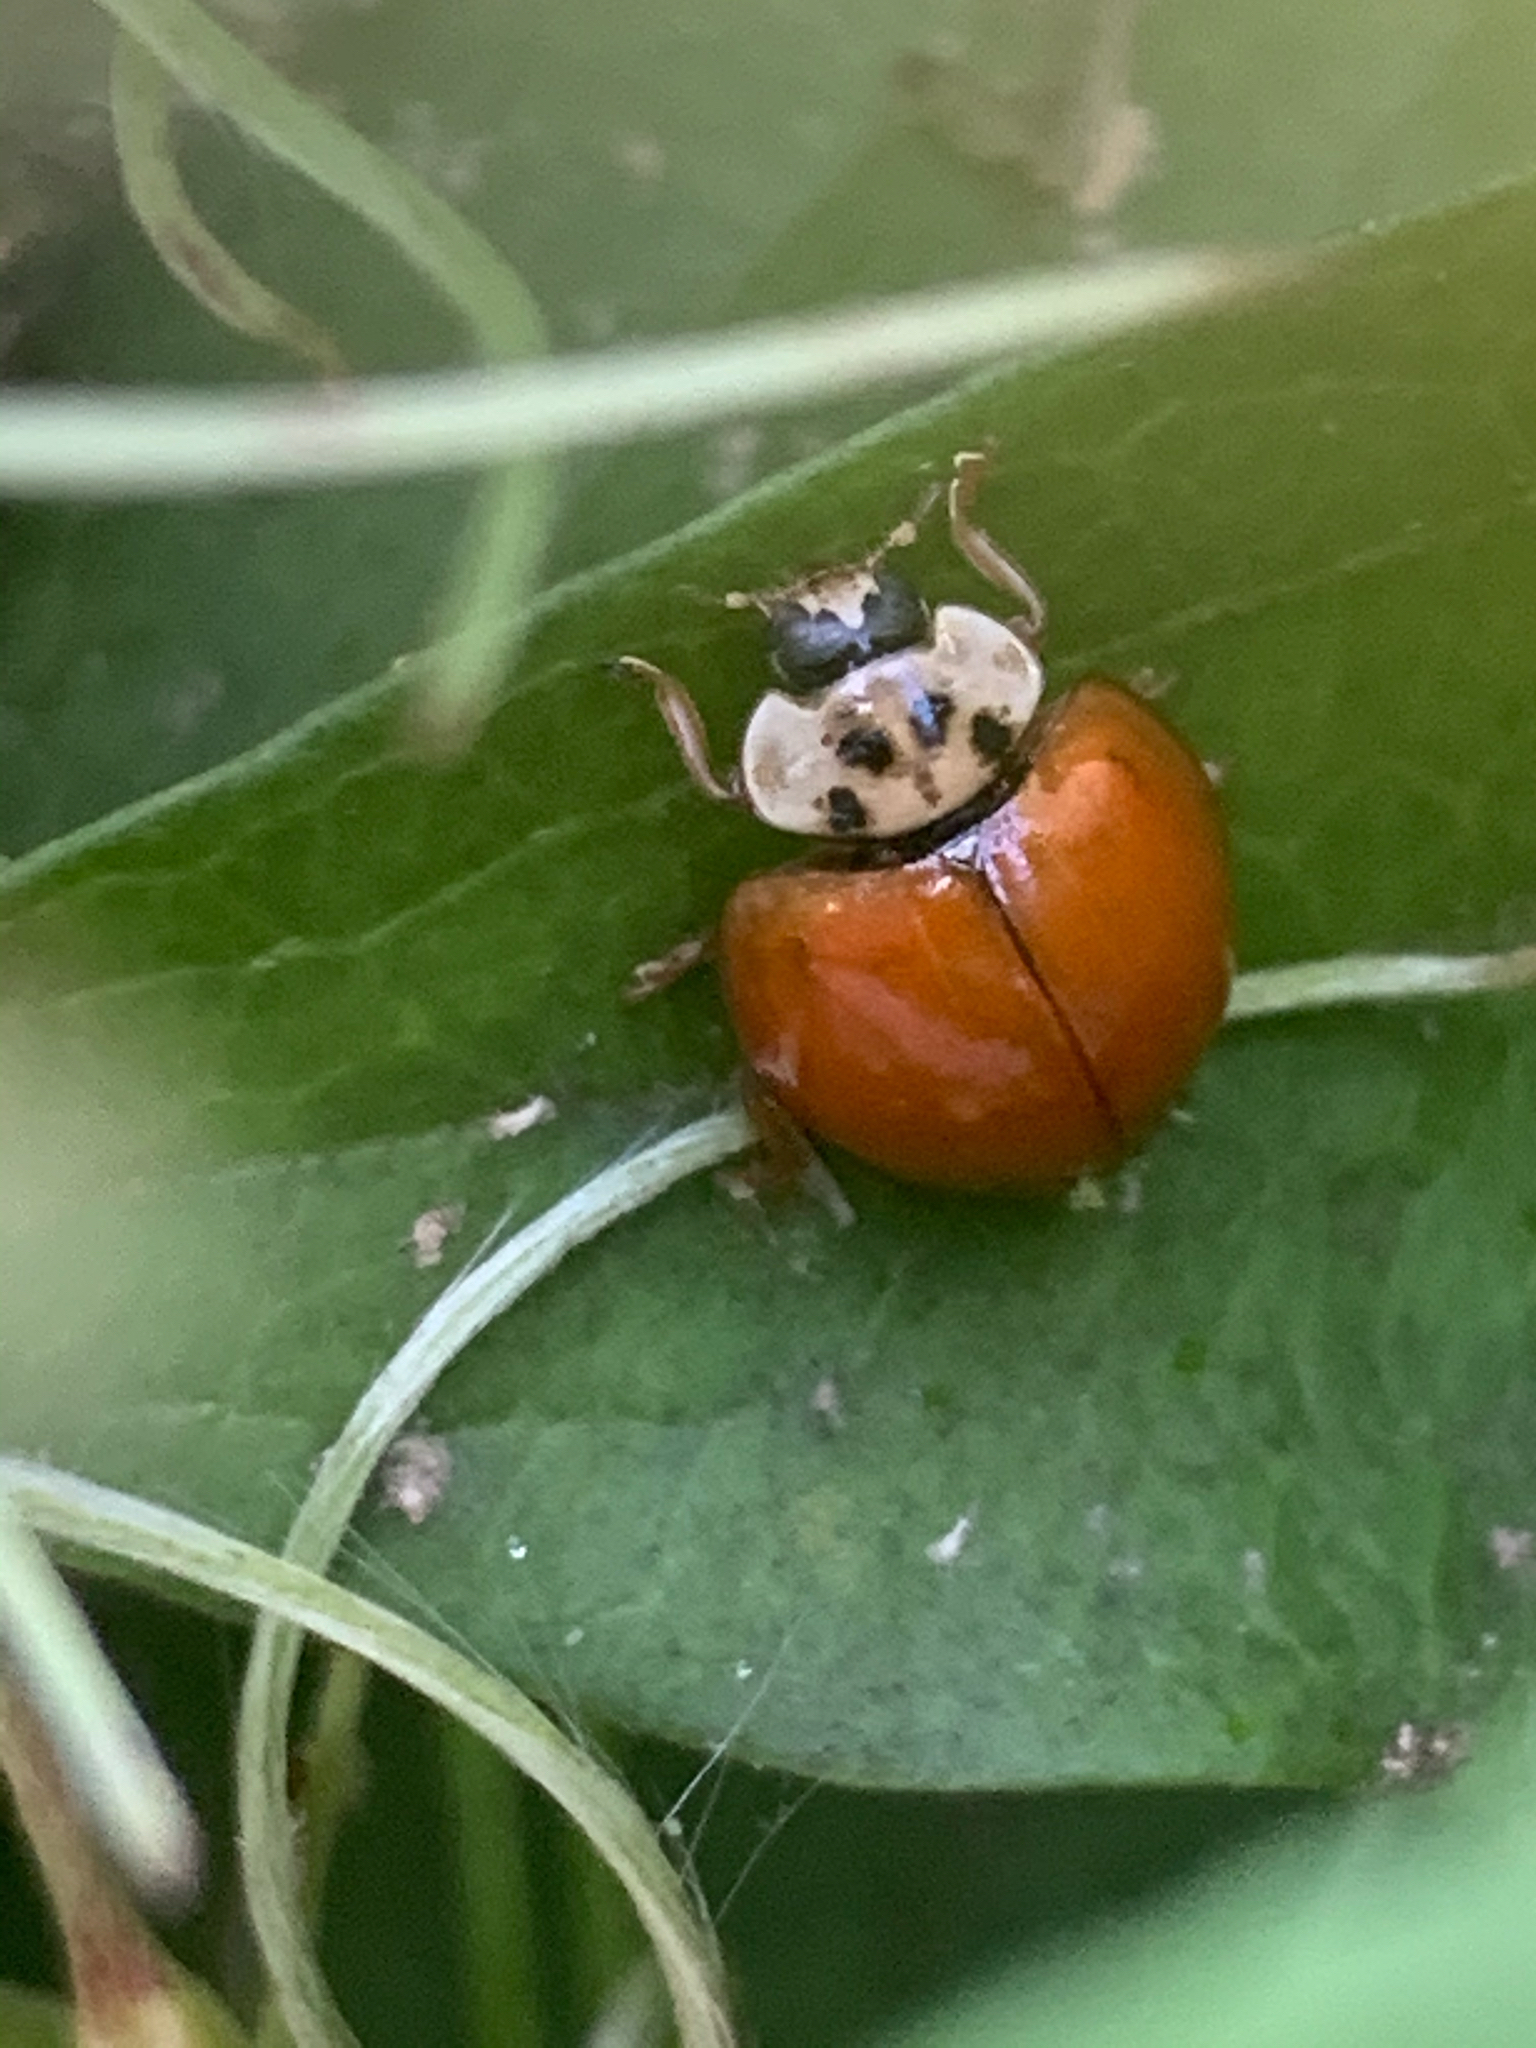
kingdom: Animalia
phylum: Arthropoda
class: Insecta
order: Coleoptera
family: Coccinellidae
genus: Harmonia
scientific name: Harmonia axyridis
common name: Harlequin ladybird
